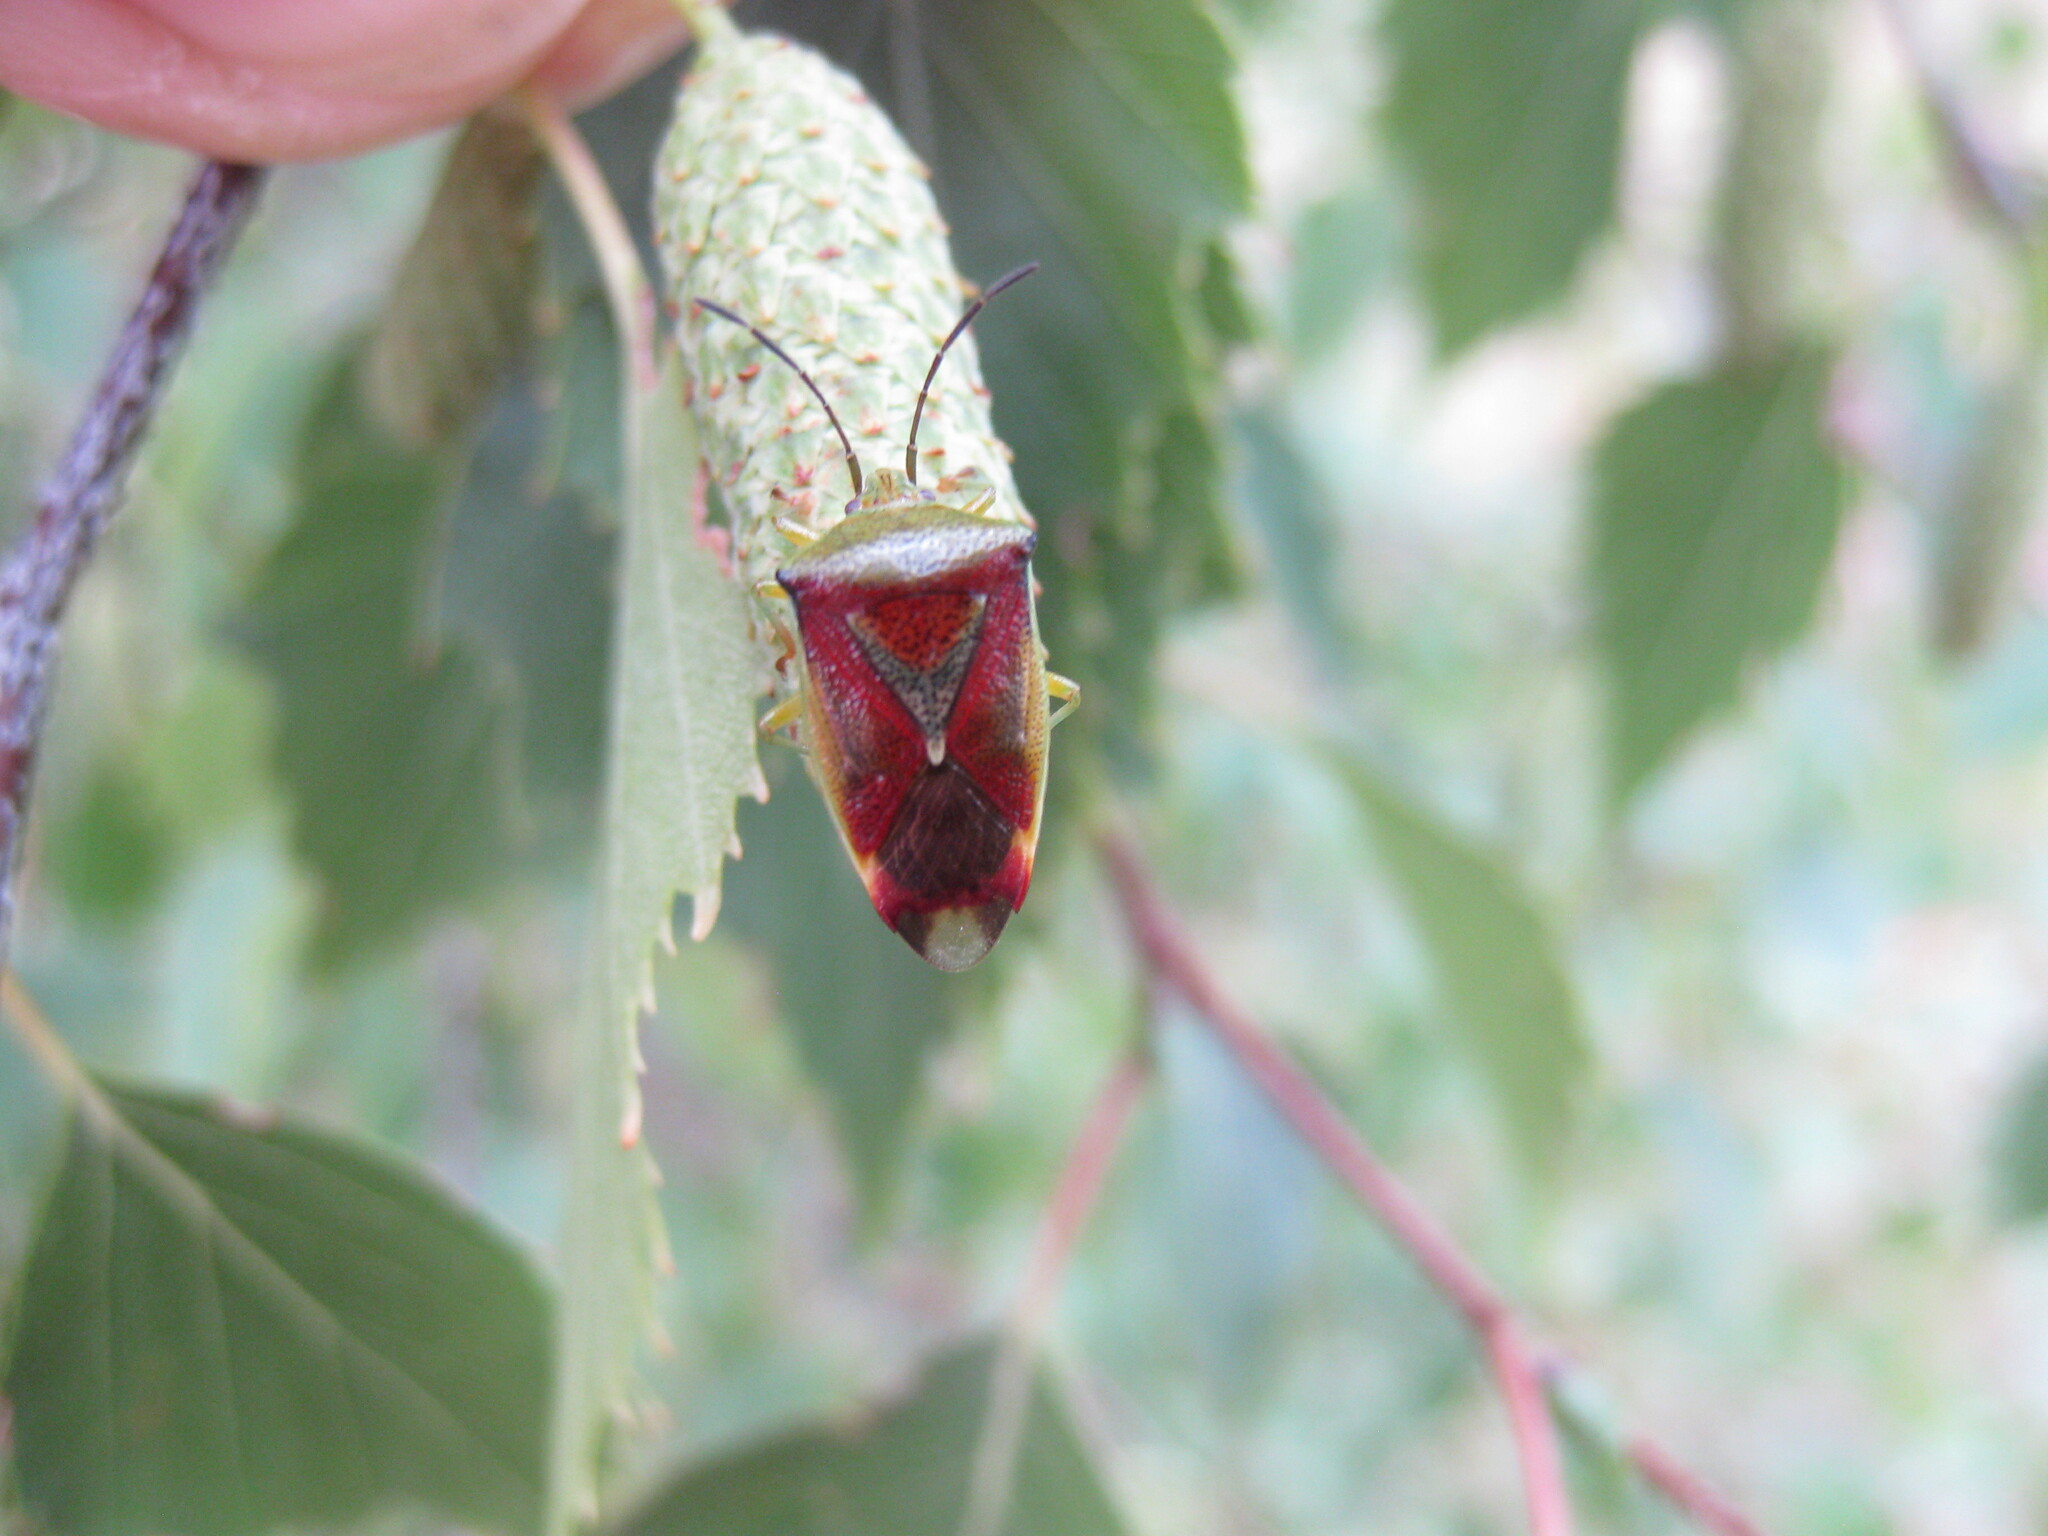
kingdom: Animalia
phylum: Arthropoda
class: Insecta
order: Hemiptera
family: Acanthosomatidae
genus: Elasmostethus
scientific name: Elasmostethus interstinctus
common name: Birch shieldbug
